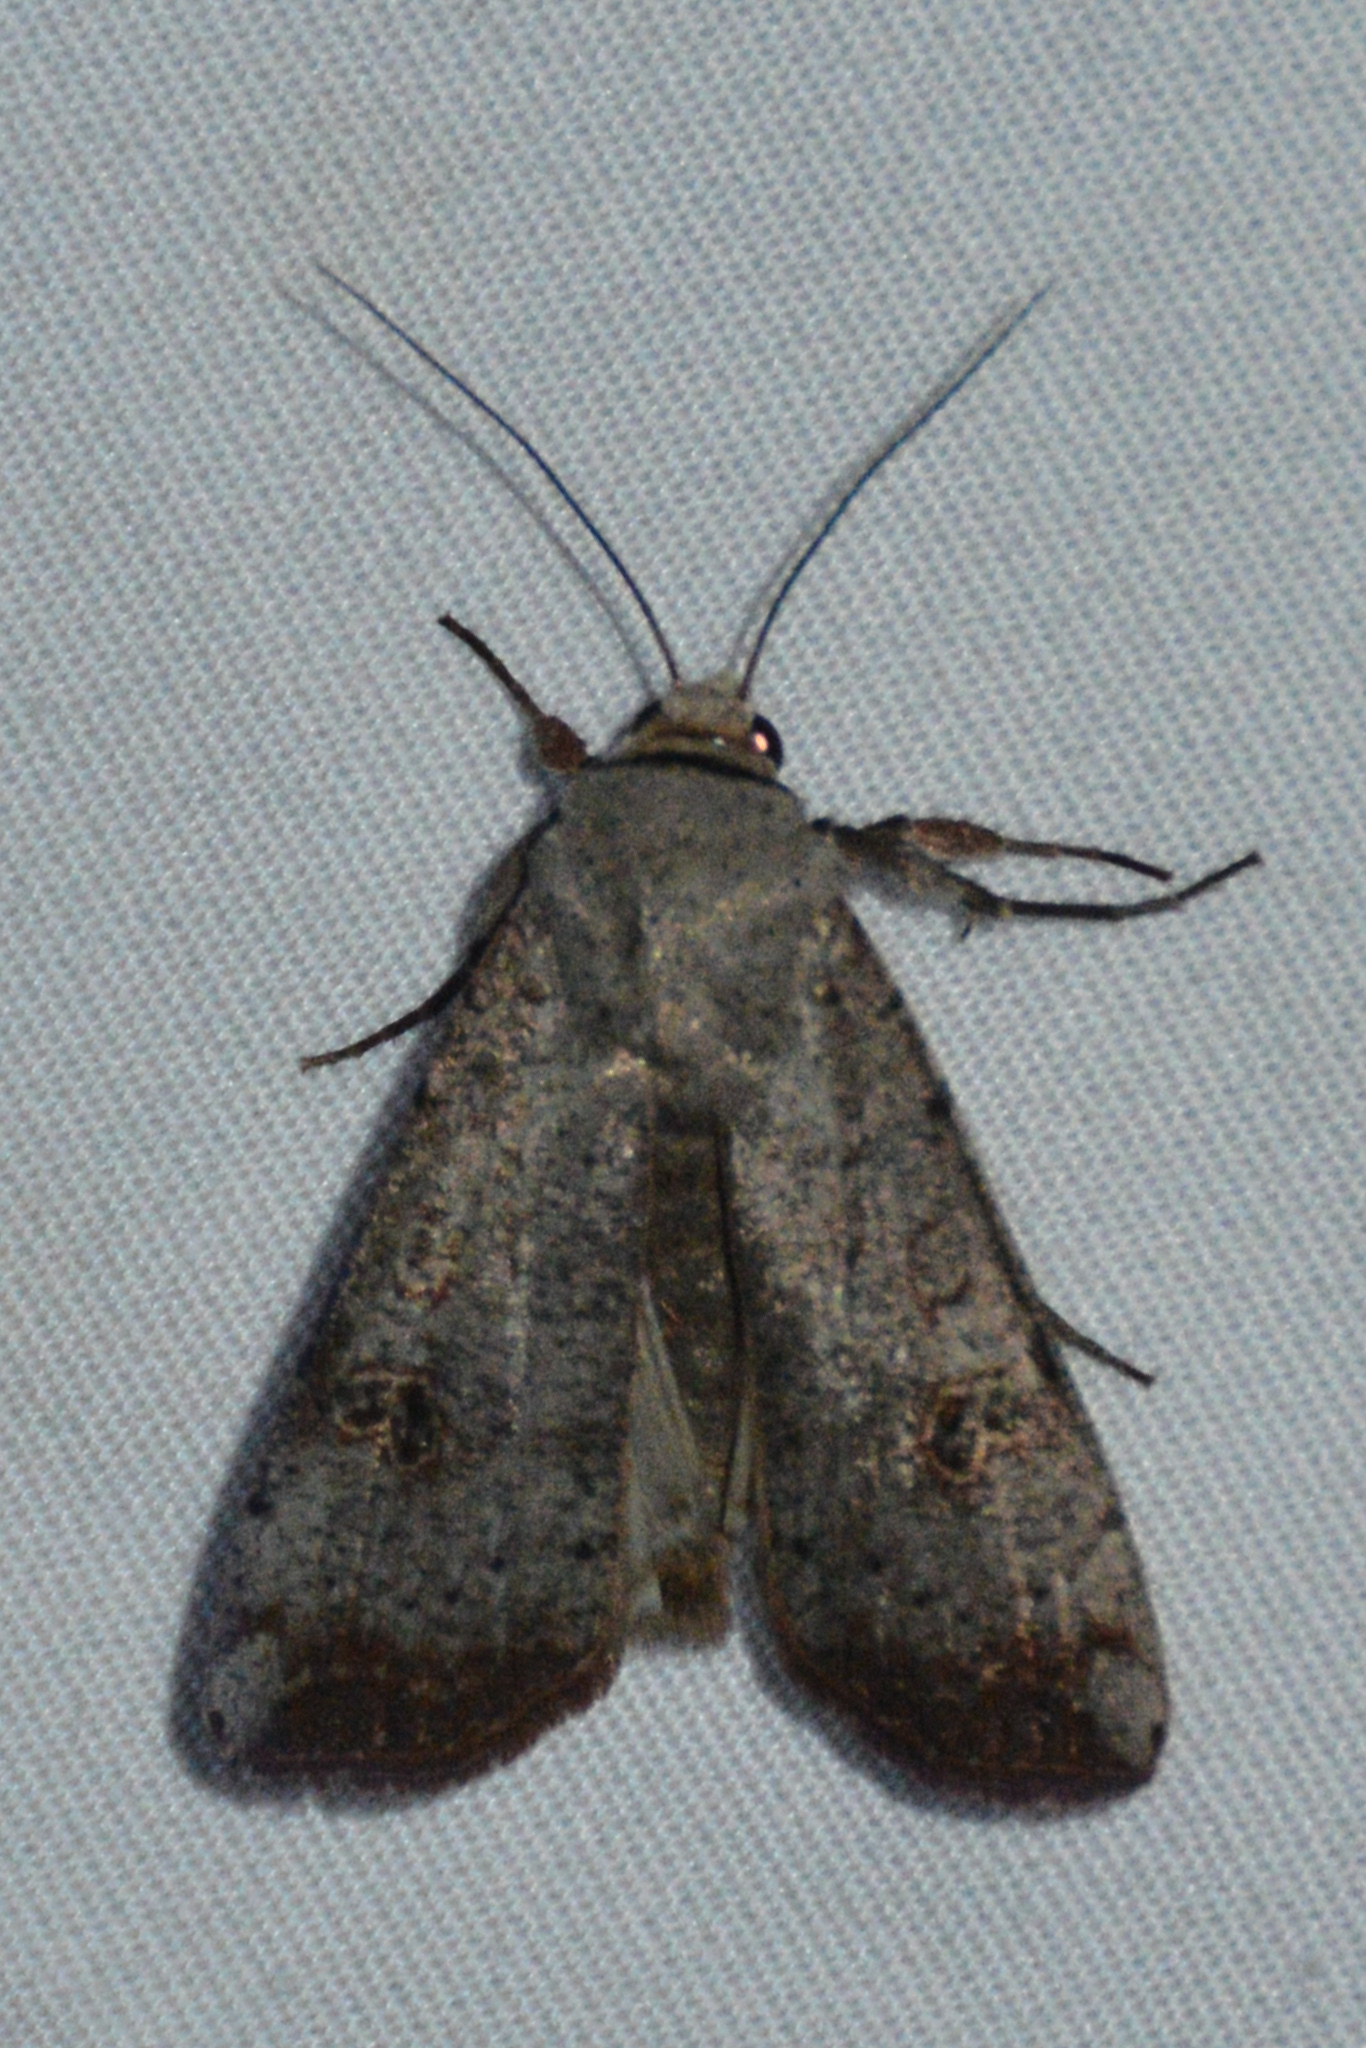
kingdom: Animalia
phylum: Arthropoda
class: Insecta
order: Lepidoptera
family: Noctuidae
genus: Anicla
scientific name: Anicla infecta
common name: Green cutworm
